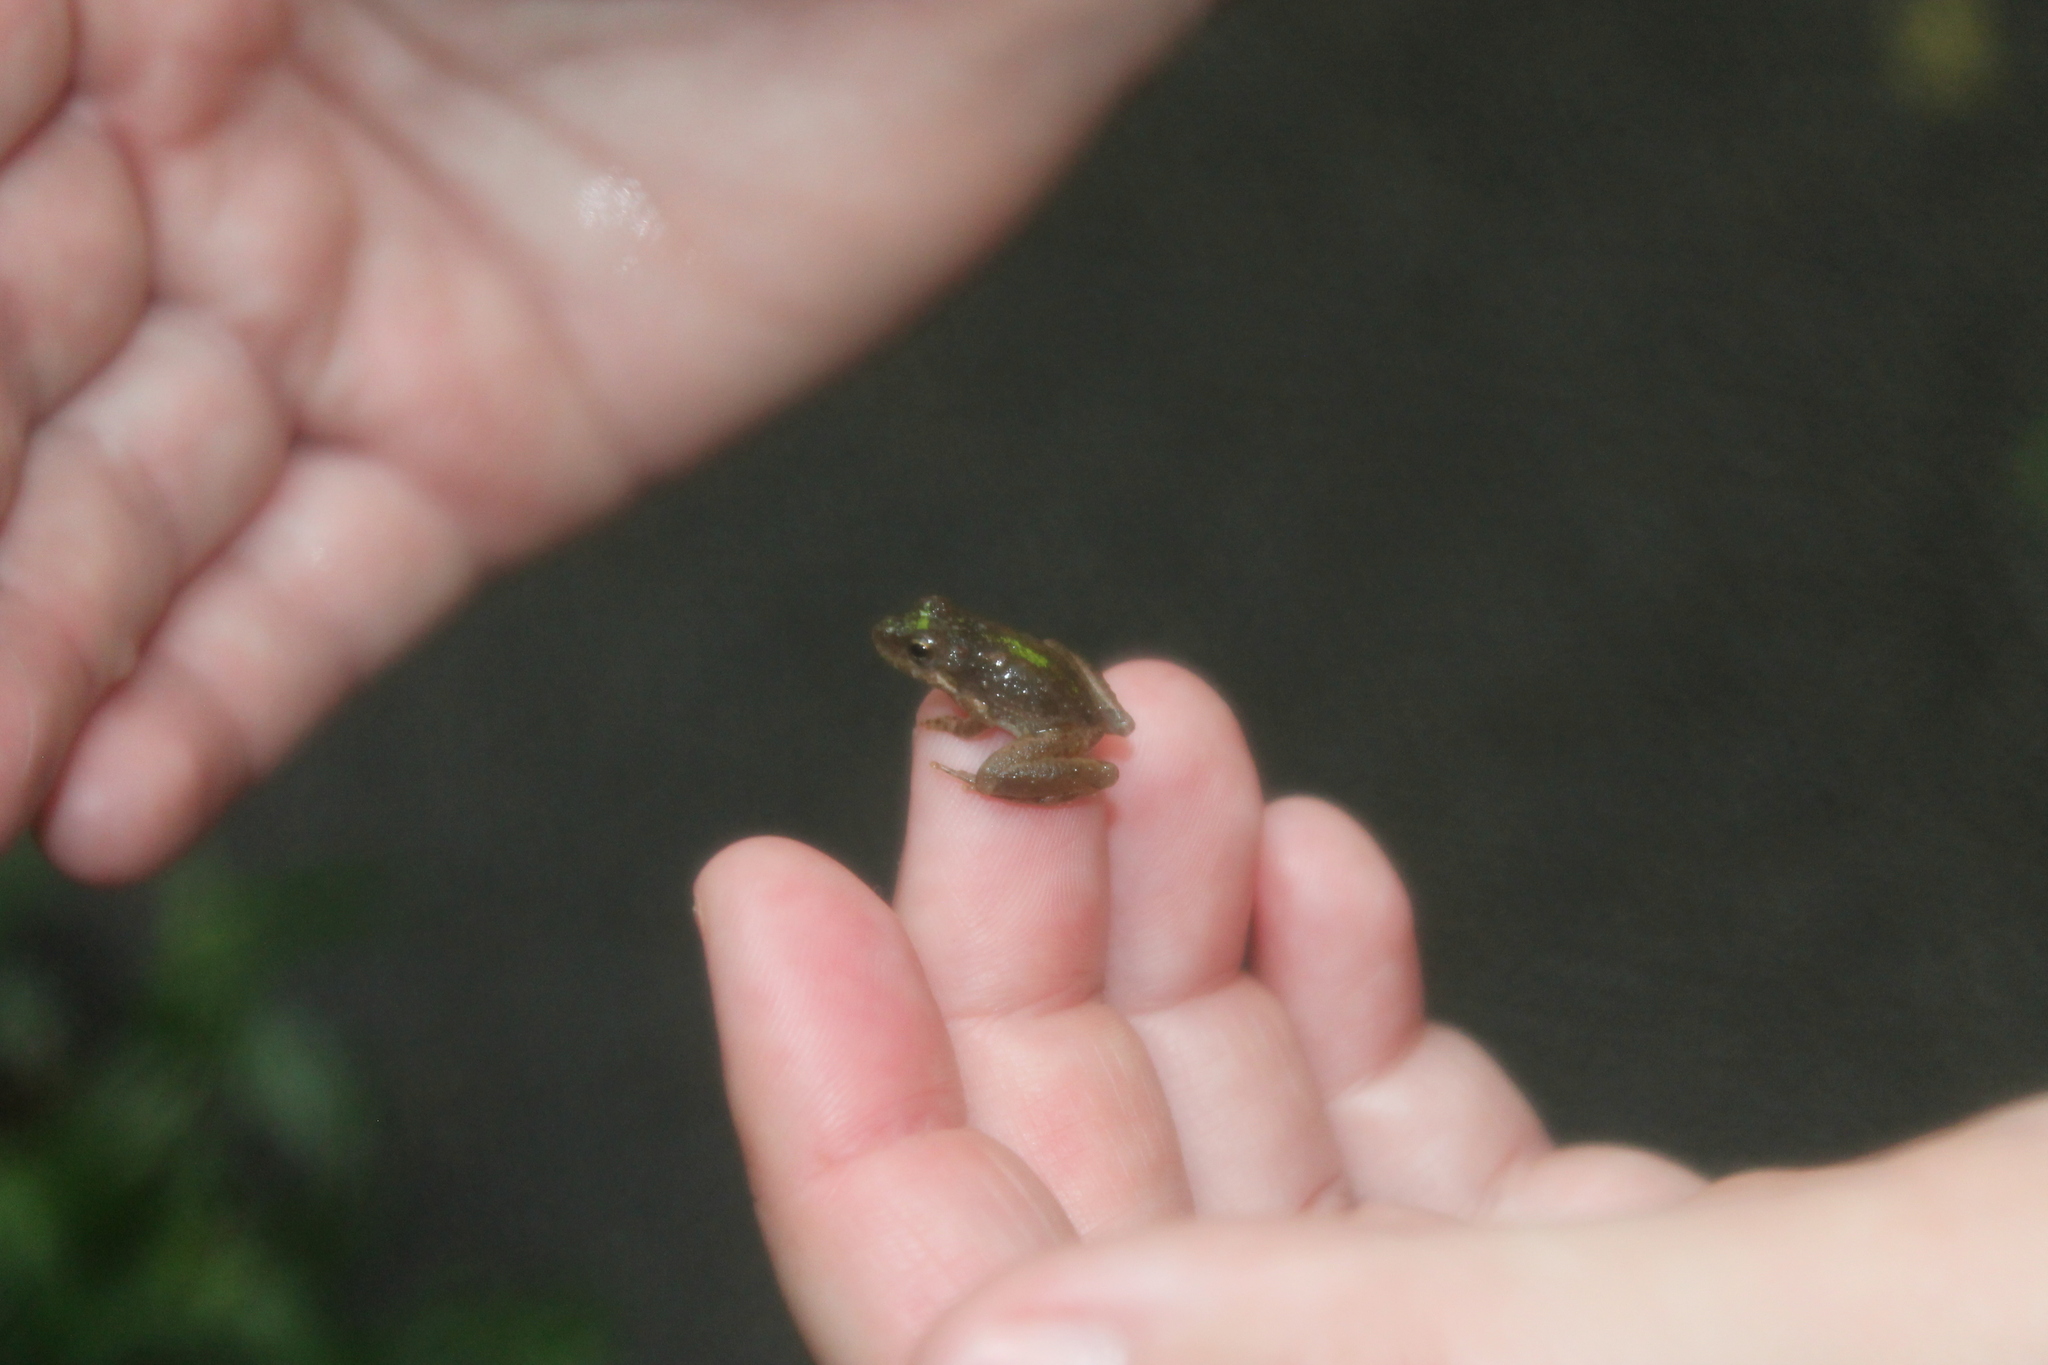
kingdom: Animalia
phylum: Chordata
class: Amphibia
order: Anura
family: Hylidae
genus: Acris
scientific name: Acris crepitans
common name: Northern cricket frog
